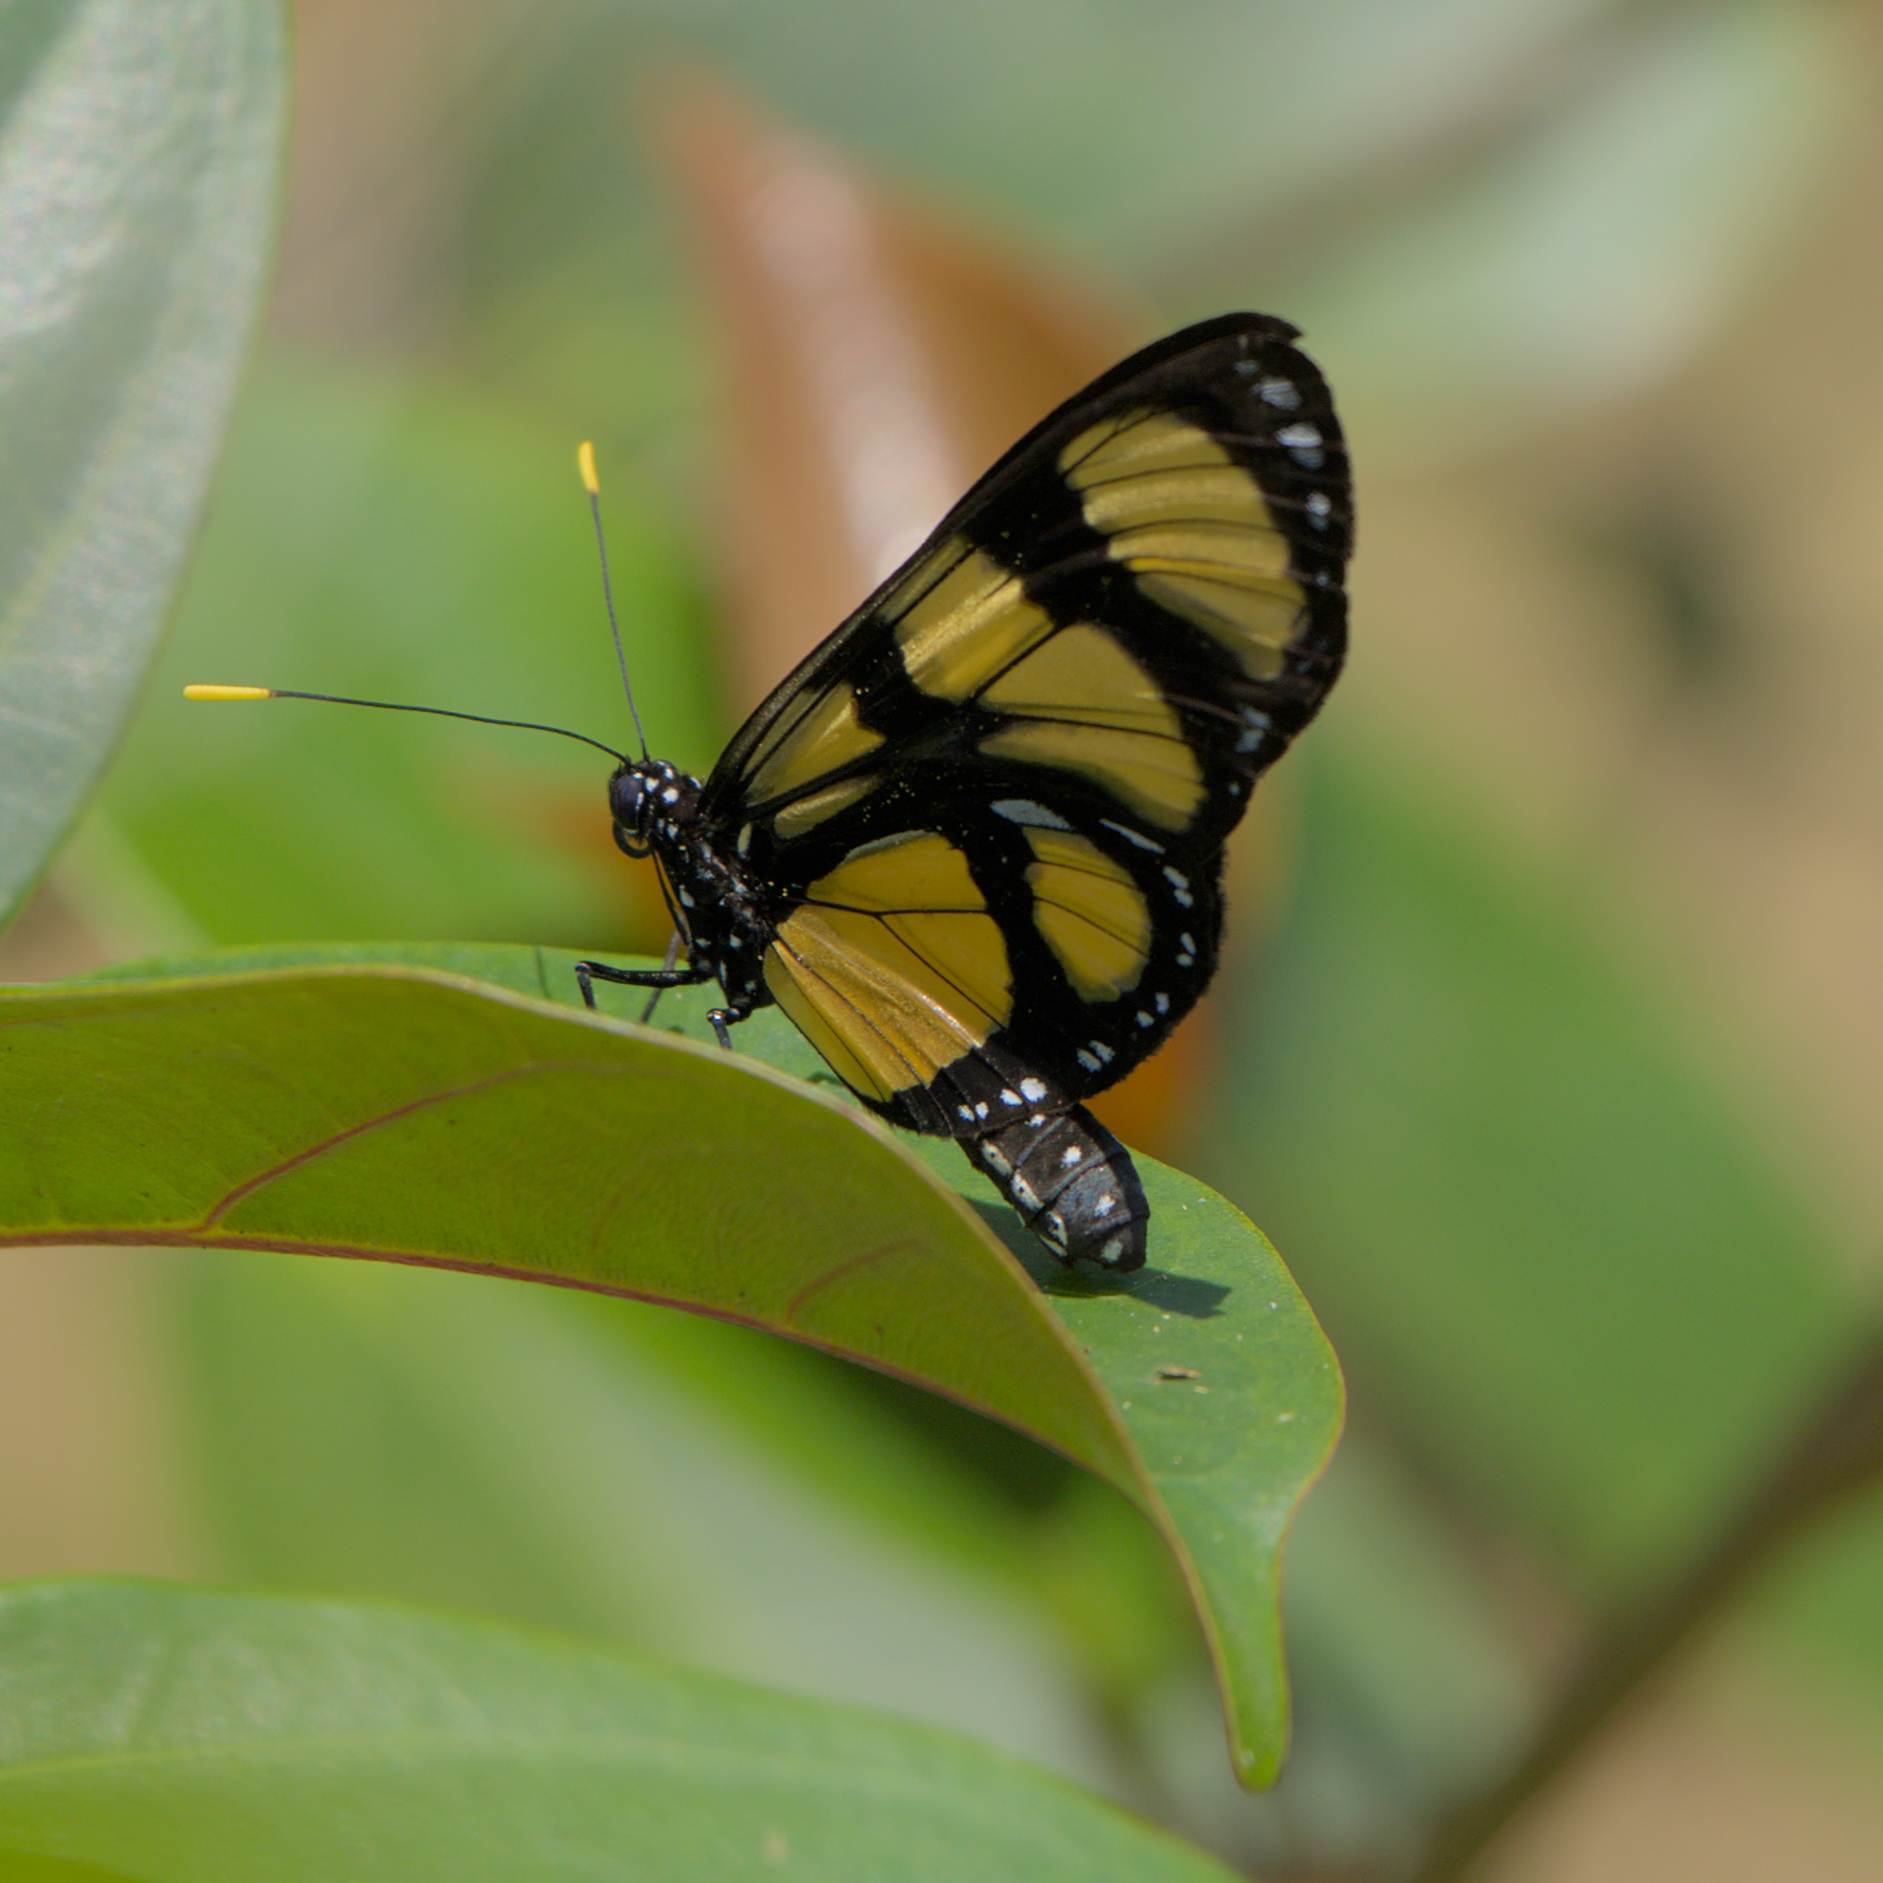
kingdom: Animalia
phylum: Arthropoda
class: Insecta
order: Lepidoptera
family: Nymphalidae
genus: Methona
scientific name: Methona confusa
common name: Confusa tigerwing
